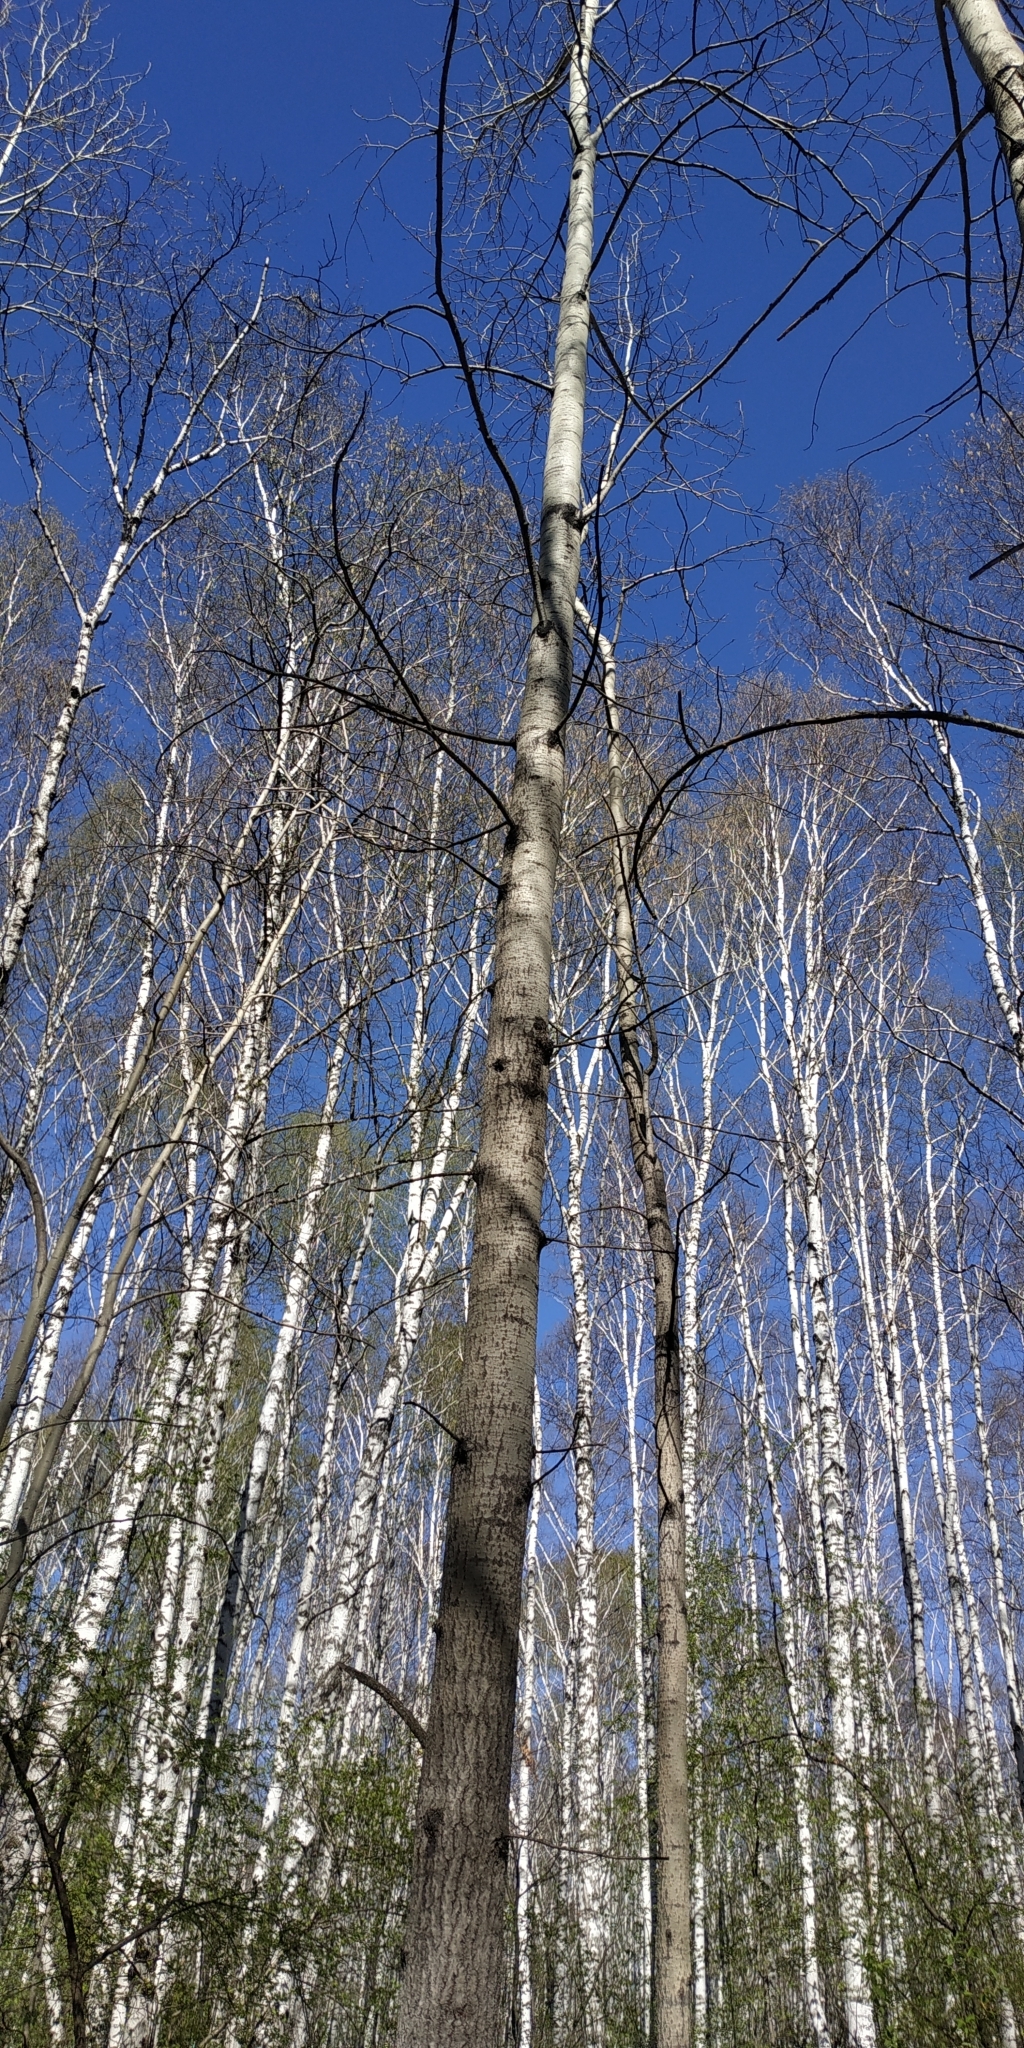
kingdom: Plantae
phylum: Tracheophyta
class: Magnoliopsida
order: Malpighiales
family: Salicaceae
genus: Populus
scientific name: Populus tremula
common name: European aspen
